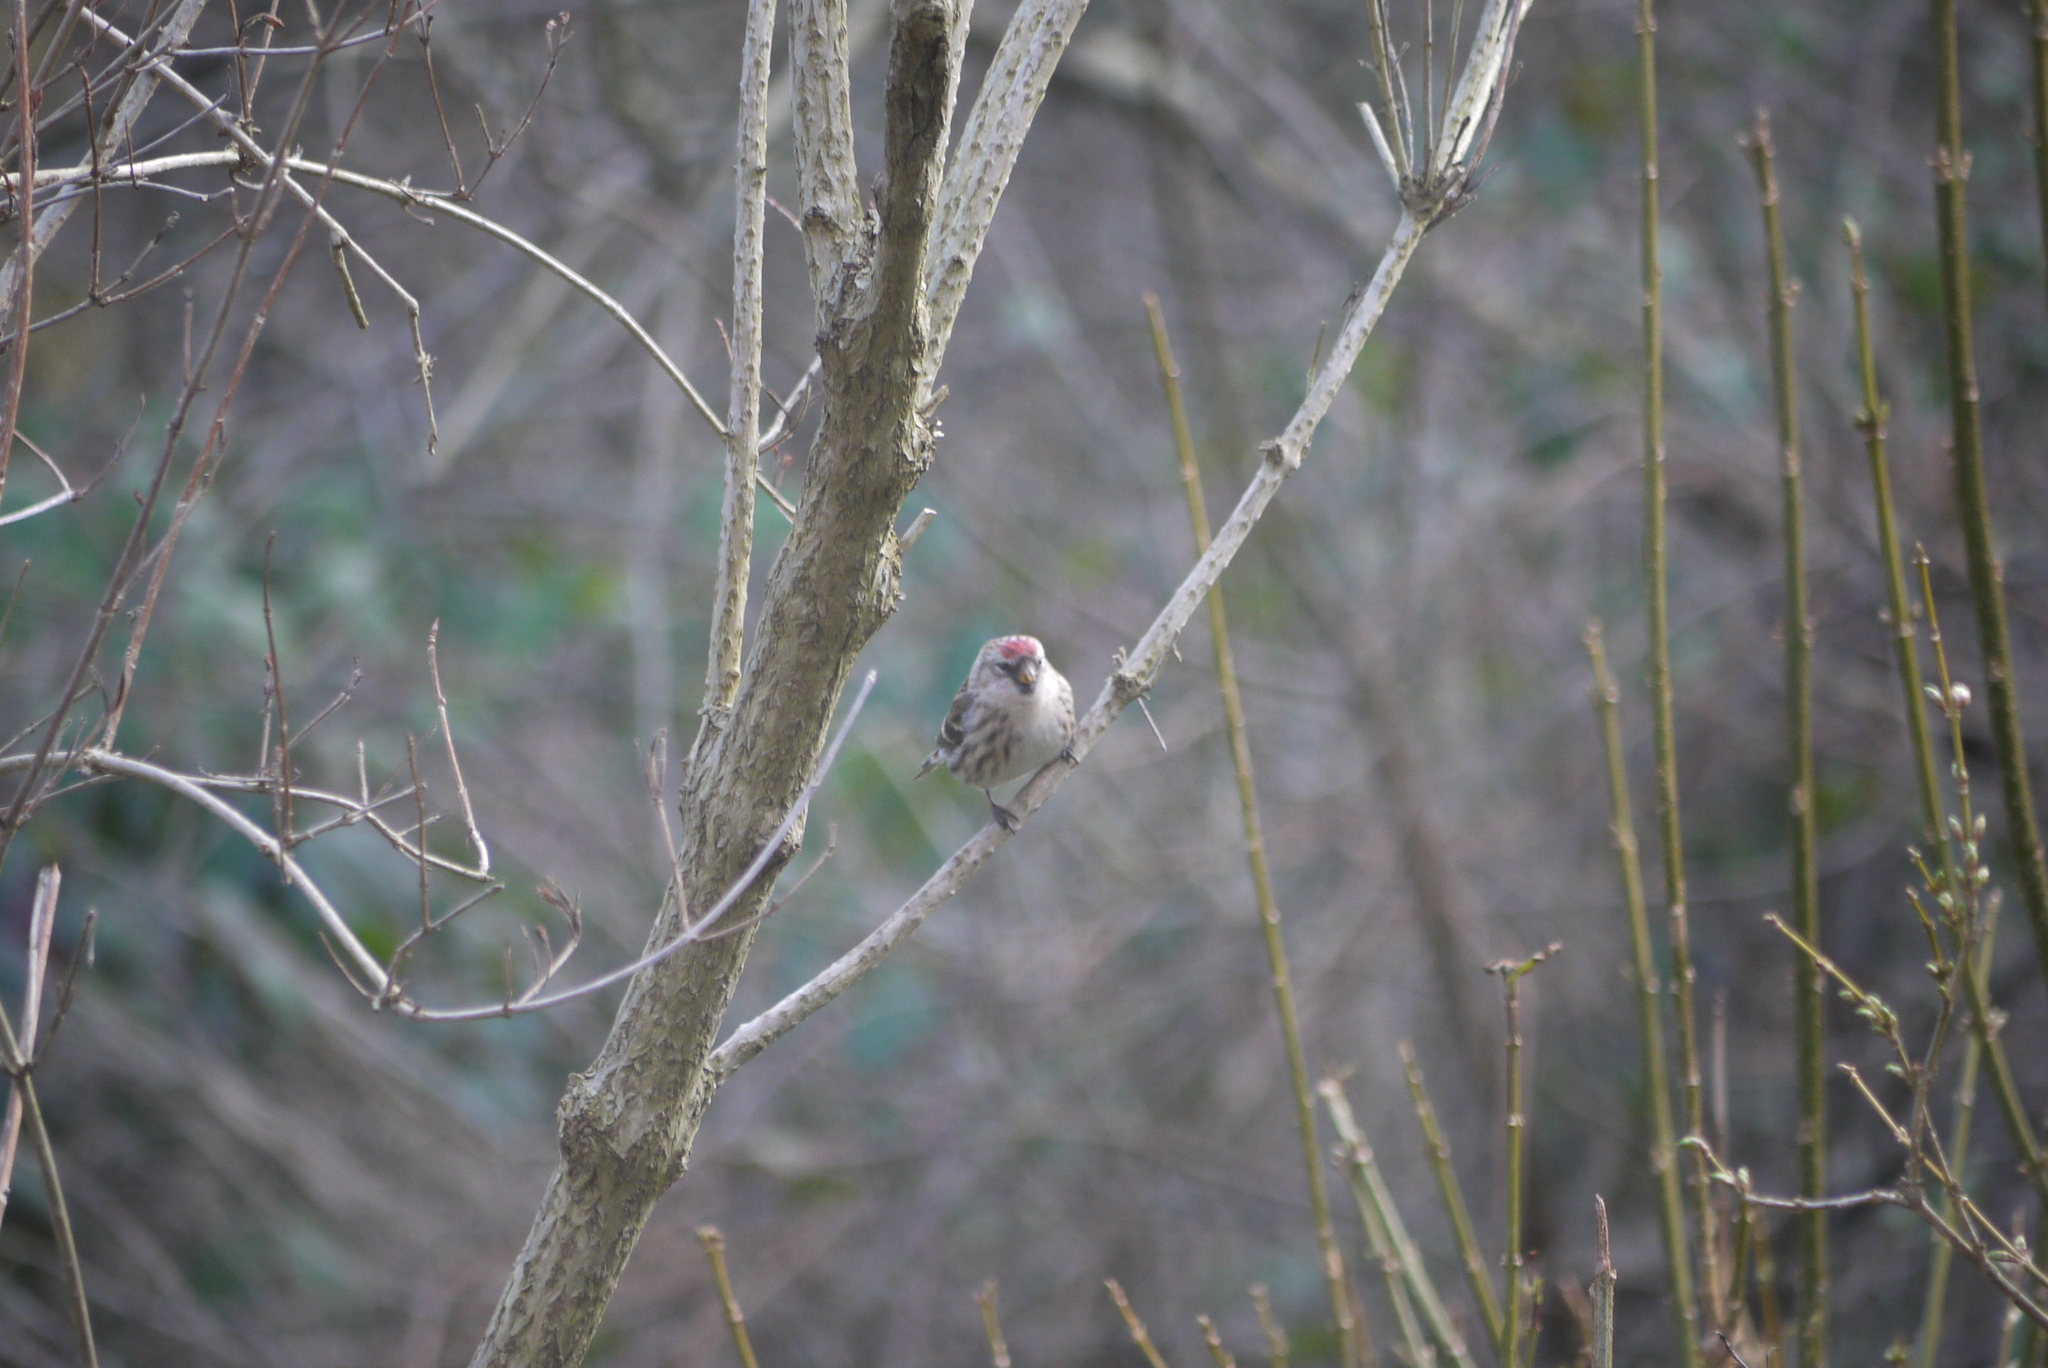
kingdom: Animalia
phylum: Chordata
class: Aves
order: Passeriformes
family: Fringillidae
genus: Acanthis
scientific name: Acanthis flammea
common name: Common redpoll
